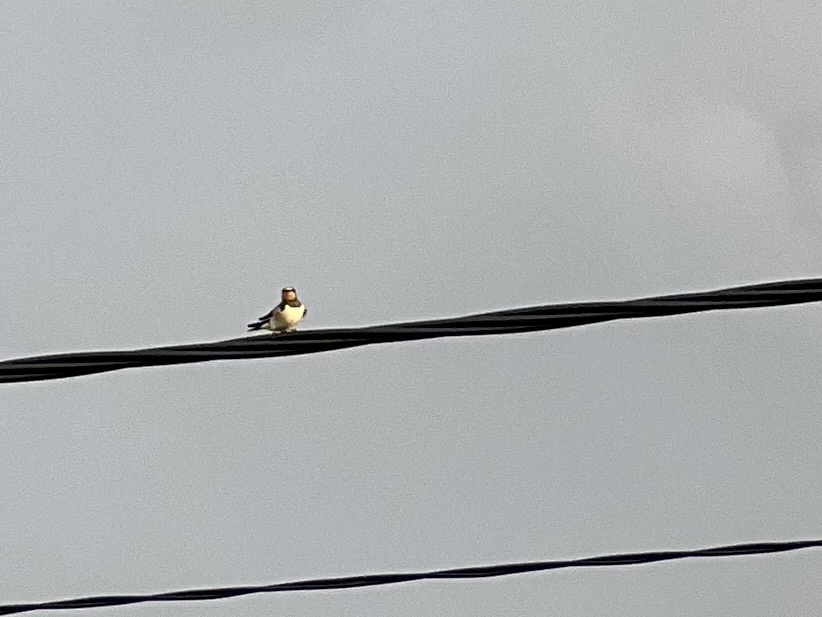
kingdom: Animalia
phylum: Chordata
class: Aves
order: Passeriformes
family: Hirundinidae
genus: Hirundo
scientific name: Hirundo rustica
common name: Barn swallow
